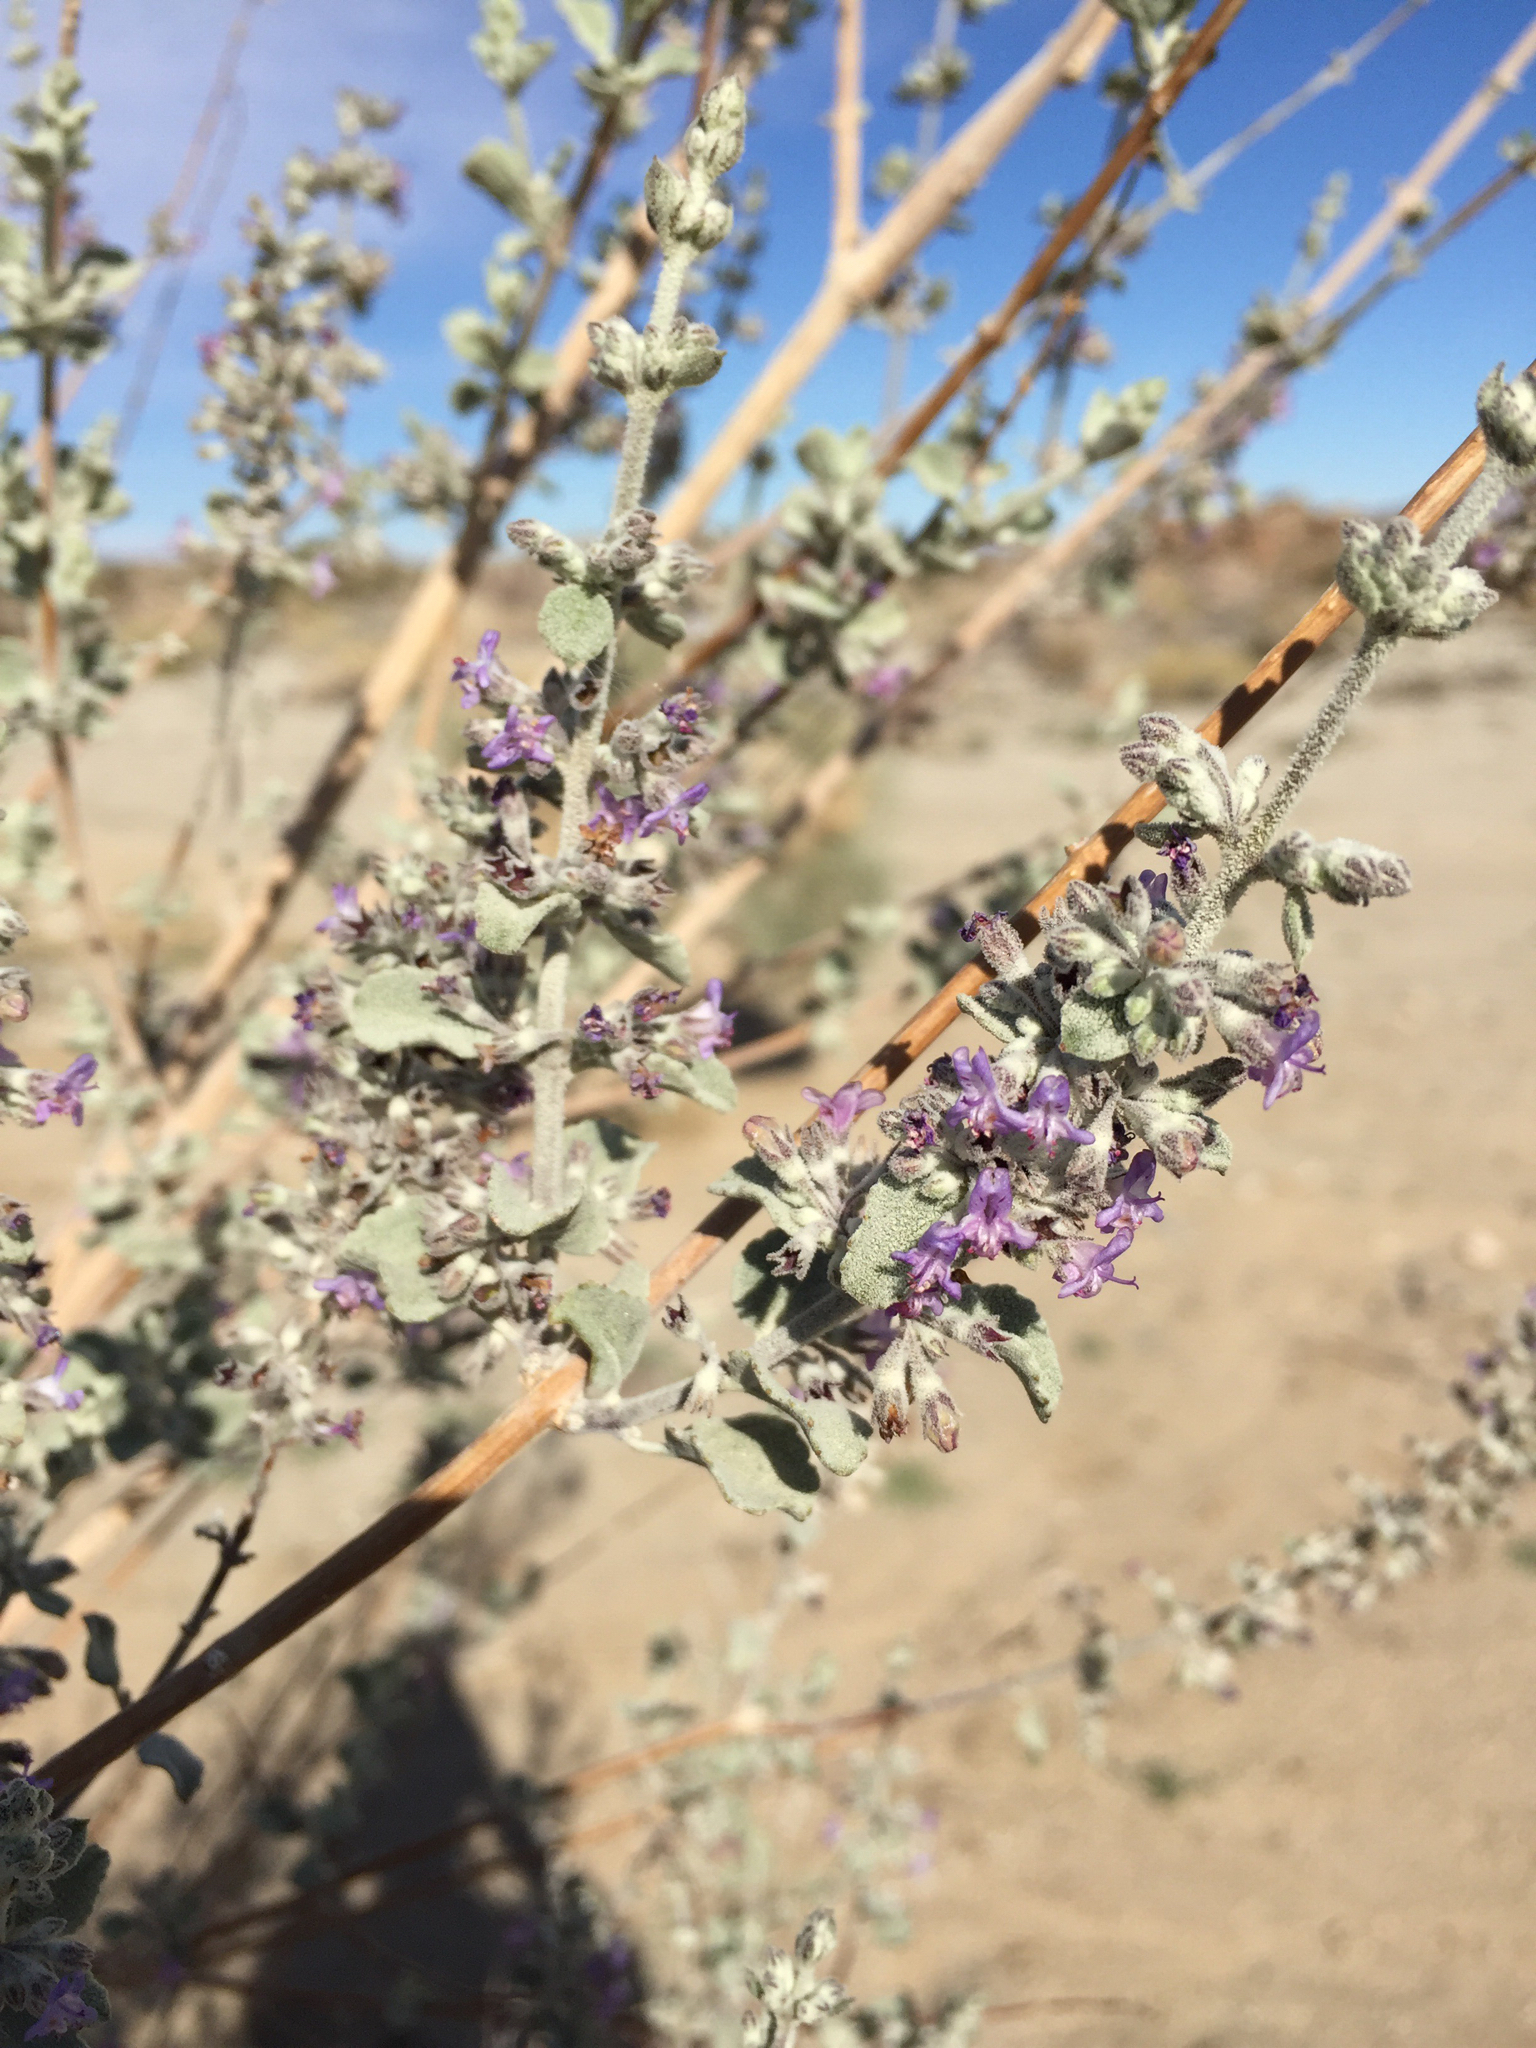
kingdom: Plantae
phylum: Tracheophyta
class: Magnoliopsida
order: Lamiales
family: Lamiaceae
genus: Condea
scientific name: Condea emoryi
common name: Chia
